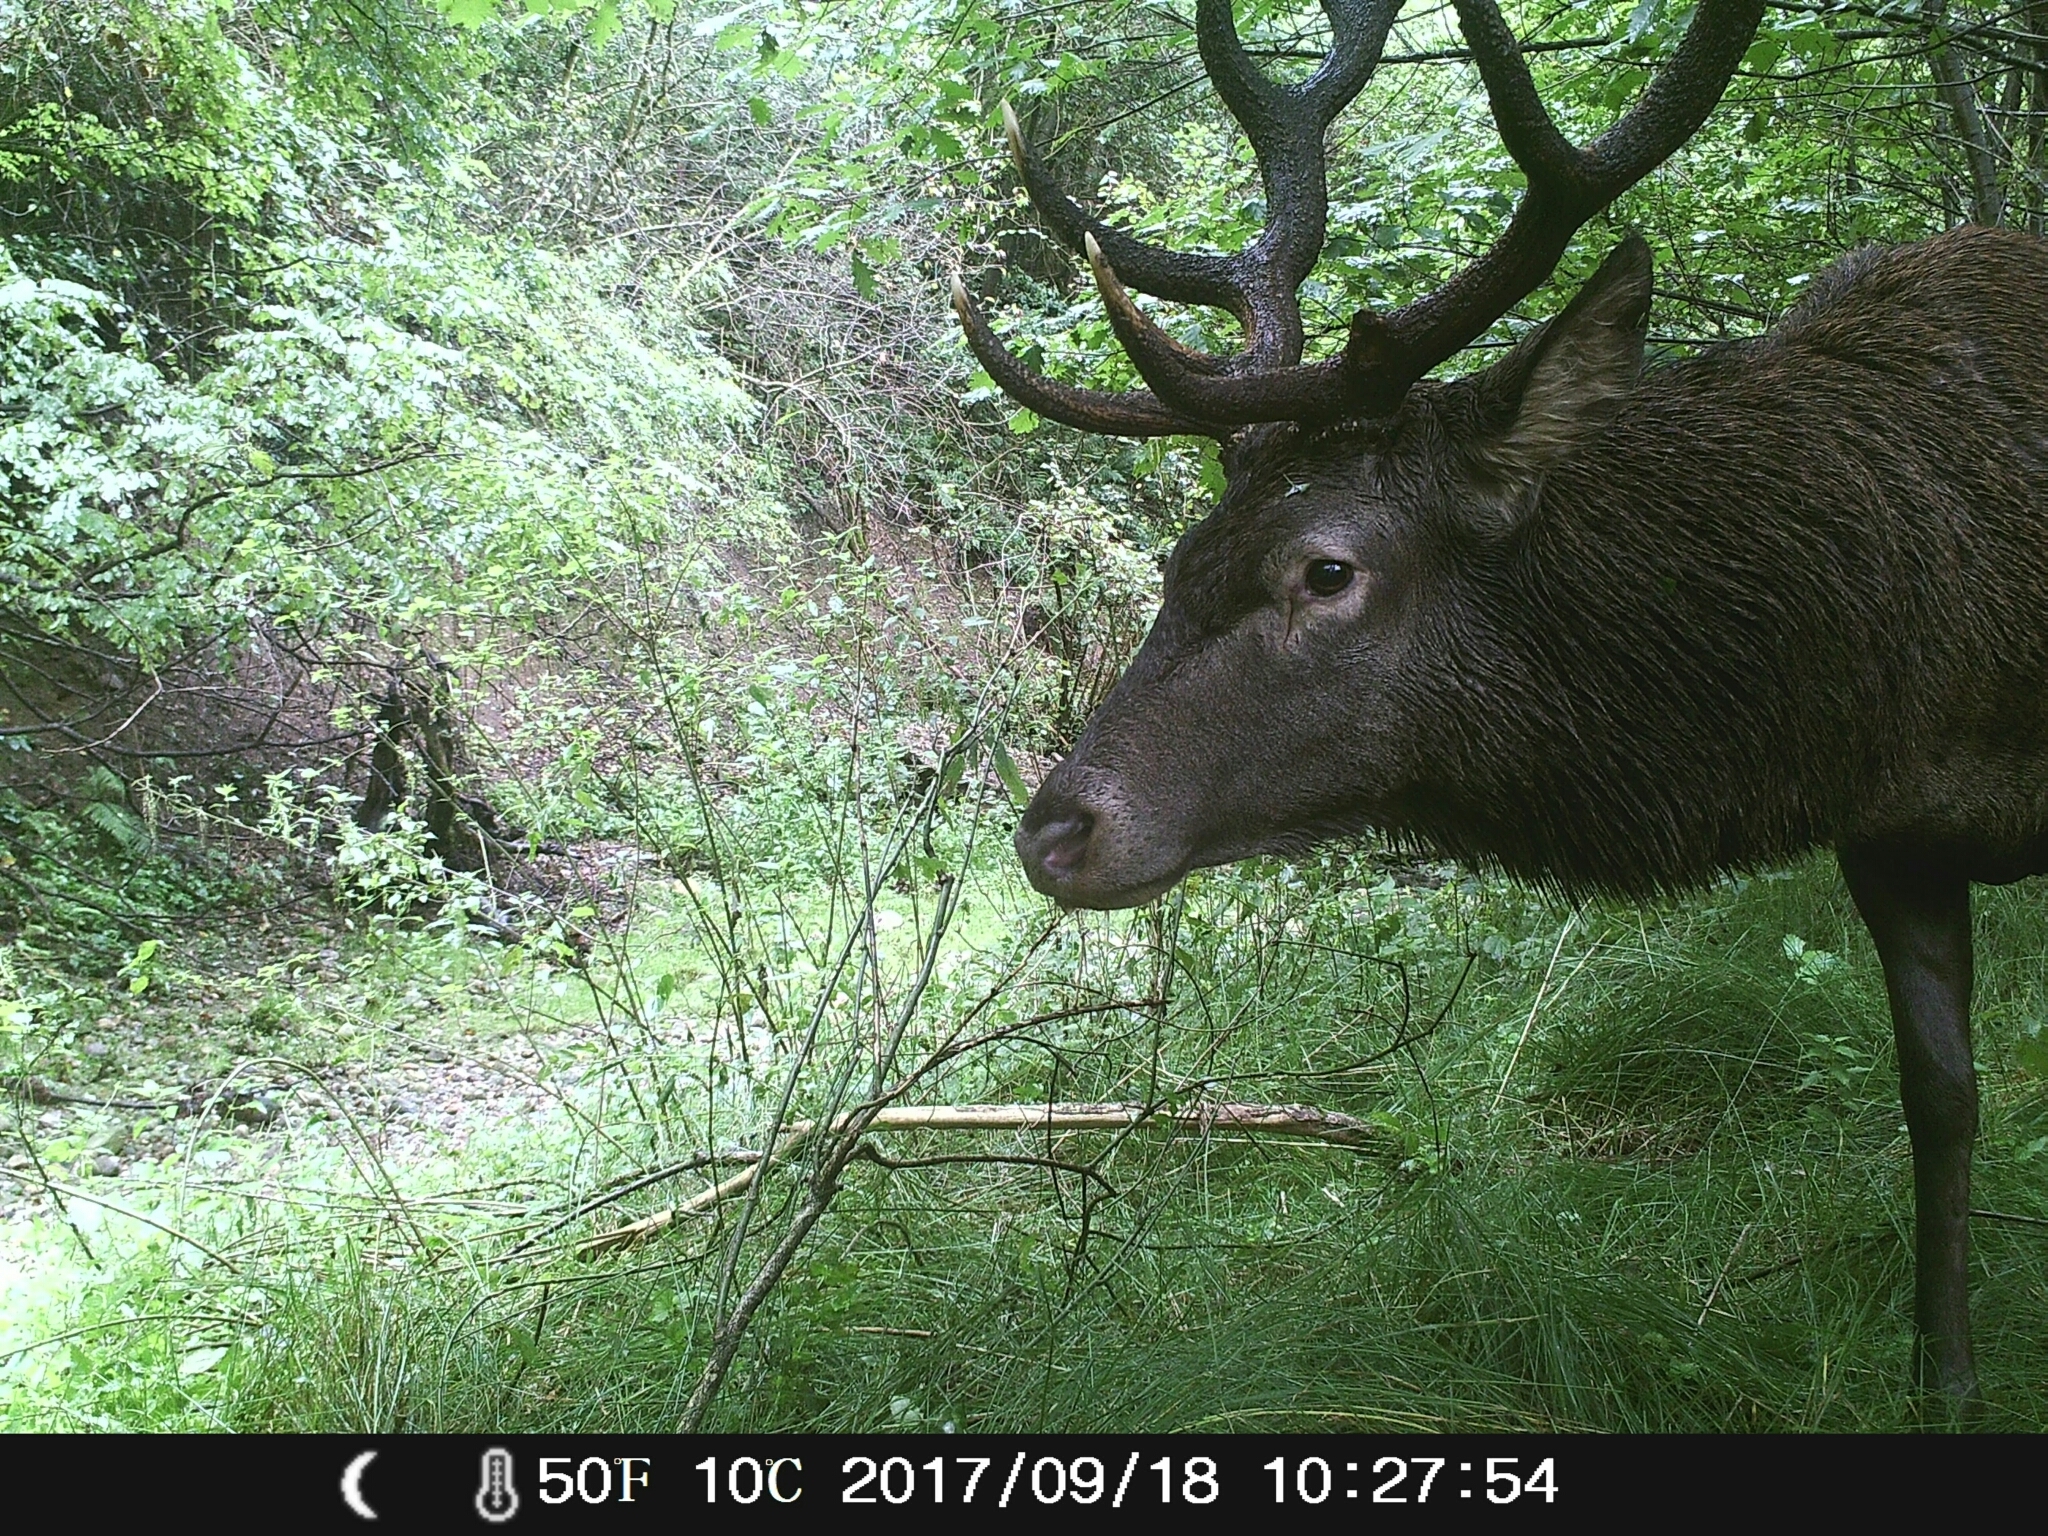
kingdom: Animalia
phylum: Chordata
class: Mammalia
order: Artiodactyla
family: Cervidae
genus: Cervus
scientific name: Cervus elaphus
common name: Red deer
